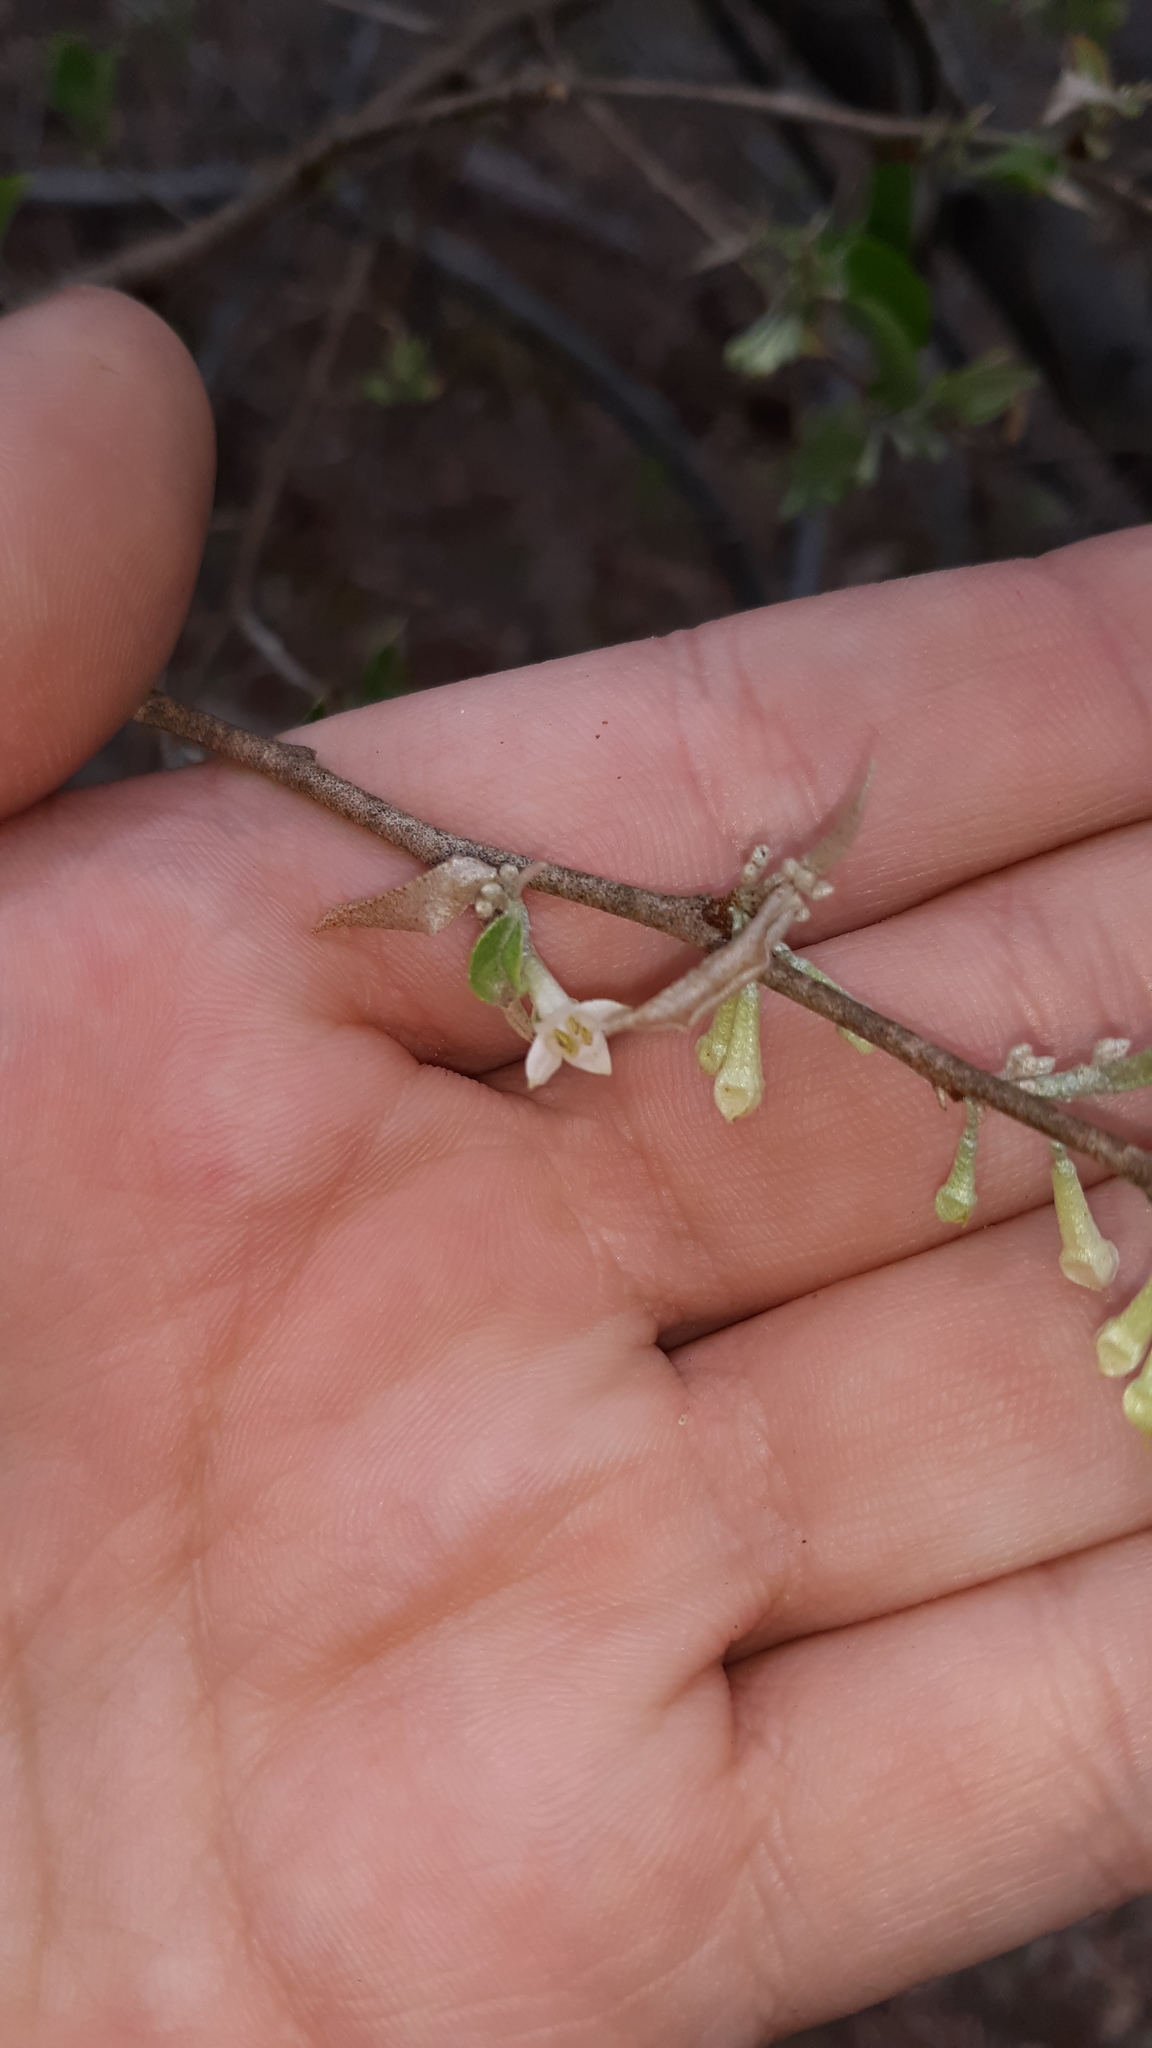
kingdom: Plantae
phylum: Tracheophyta
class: Magnoliopsida
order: Rosales
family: Elaeagnaceae
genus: Elaeagnus
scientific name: Elaeagnus umbellata
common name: Autumn olive
